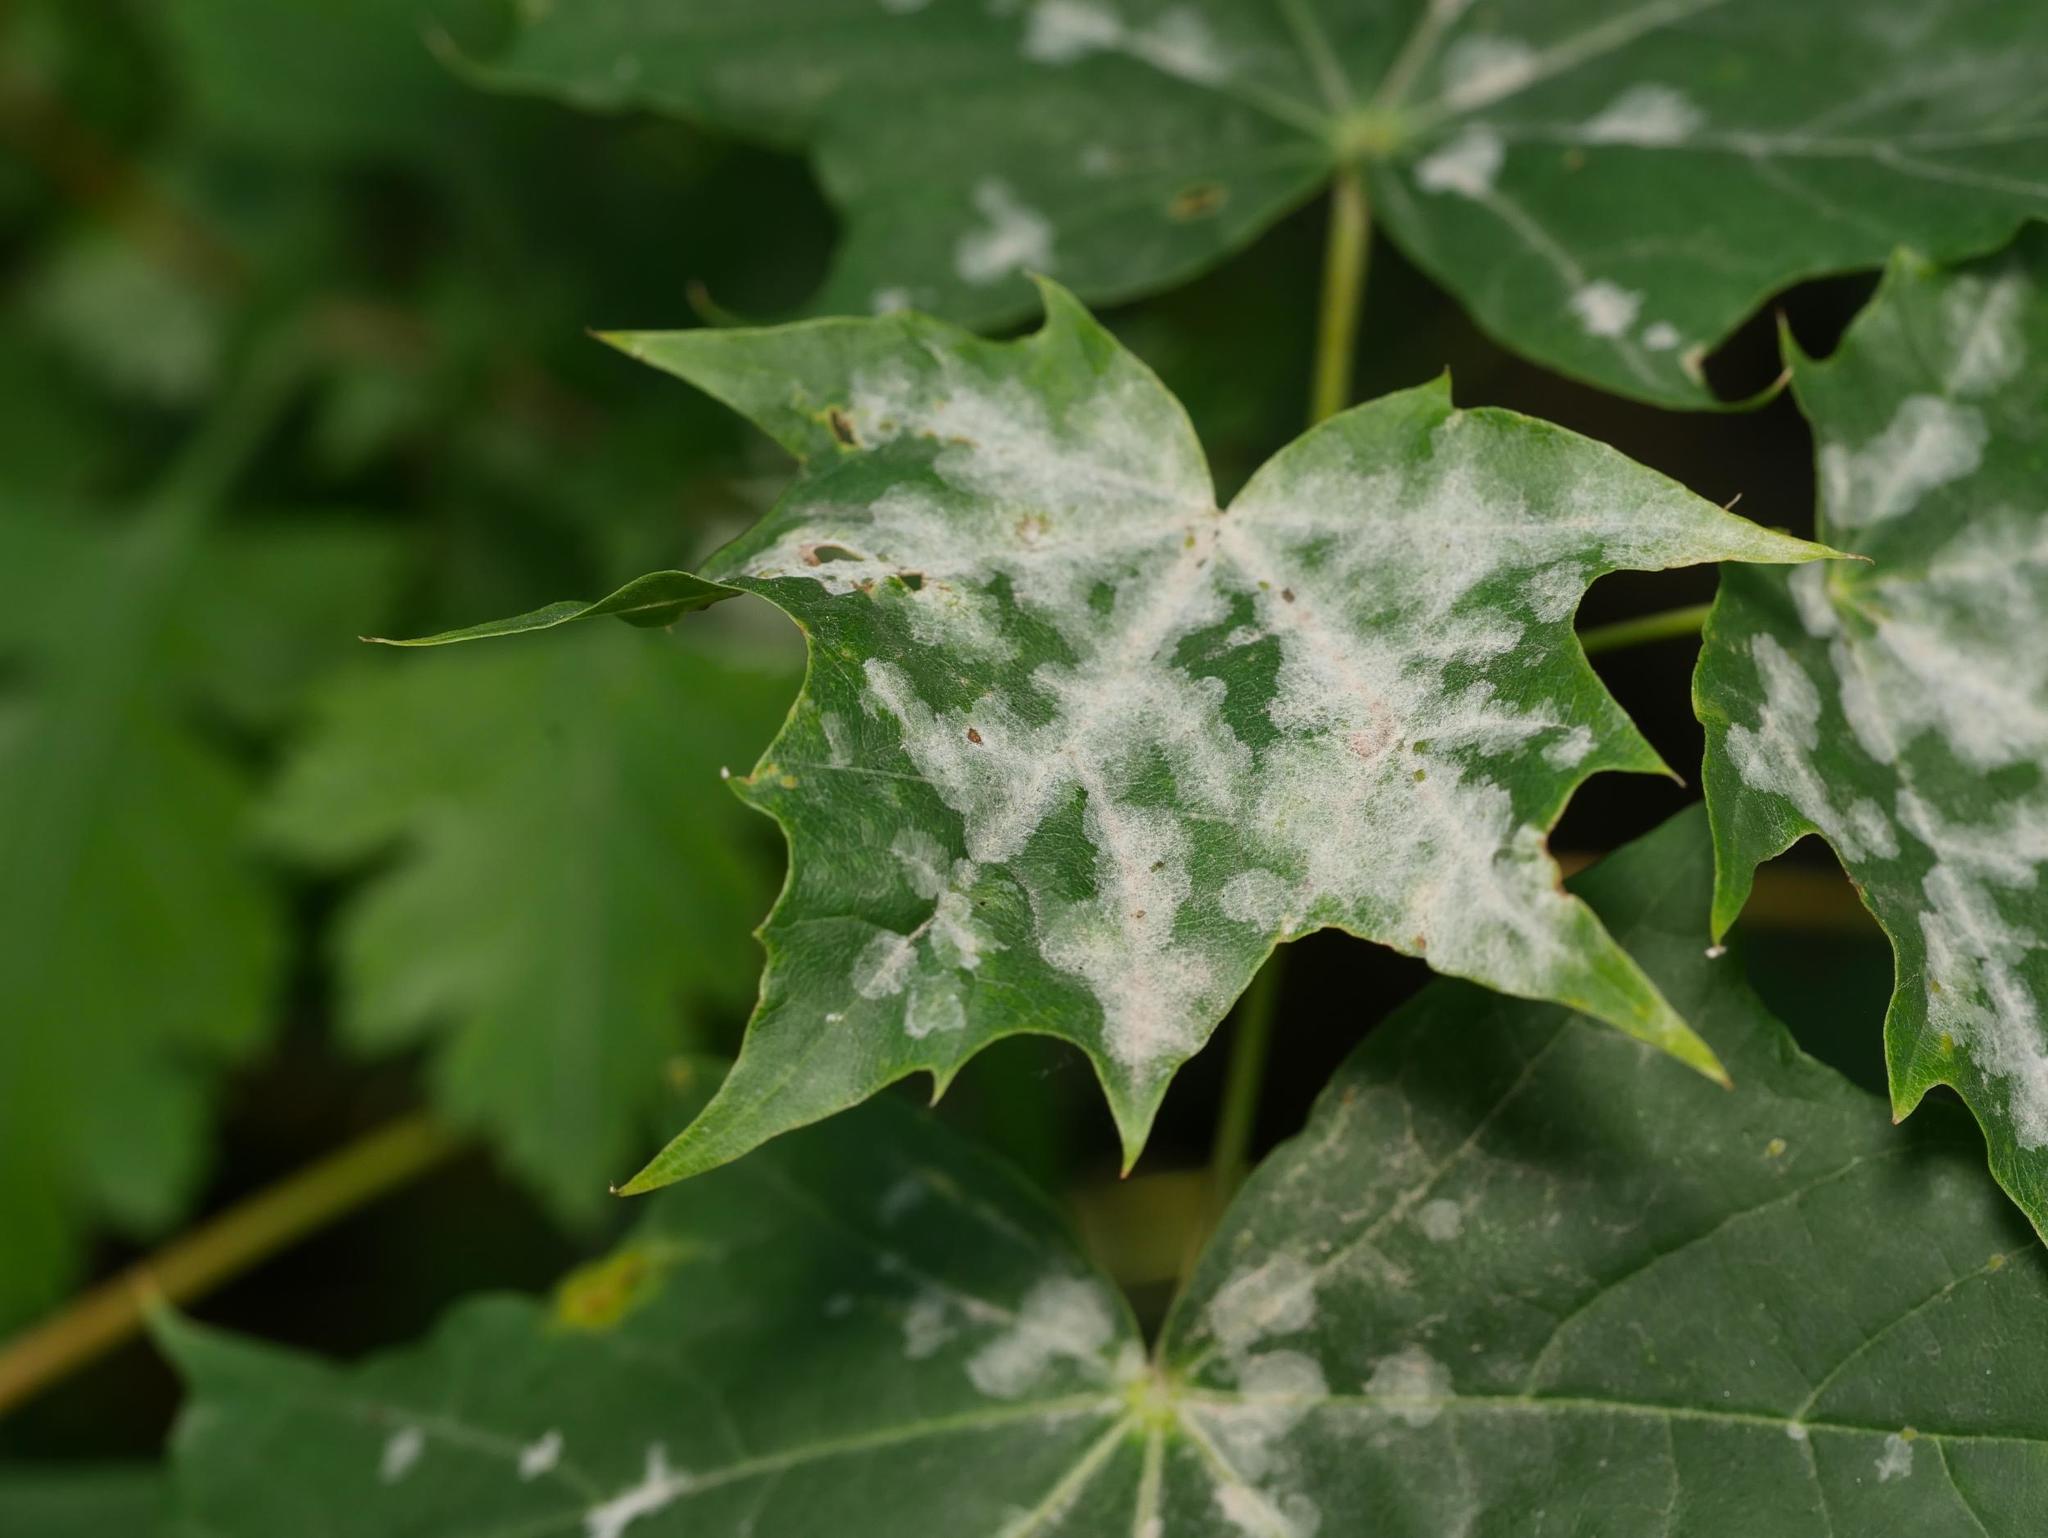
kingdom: Plantae
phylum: Tracheophyta
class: Magnoliopsida
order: Sapindales
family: Sapindaceae
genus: Acer
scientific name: Acer platanoides
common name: Norway maple
